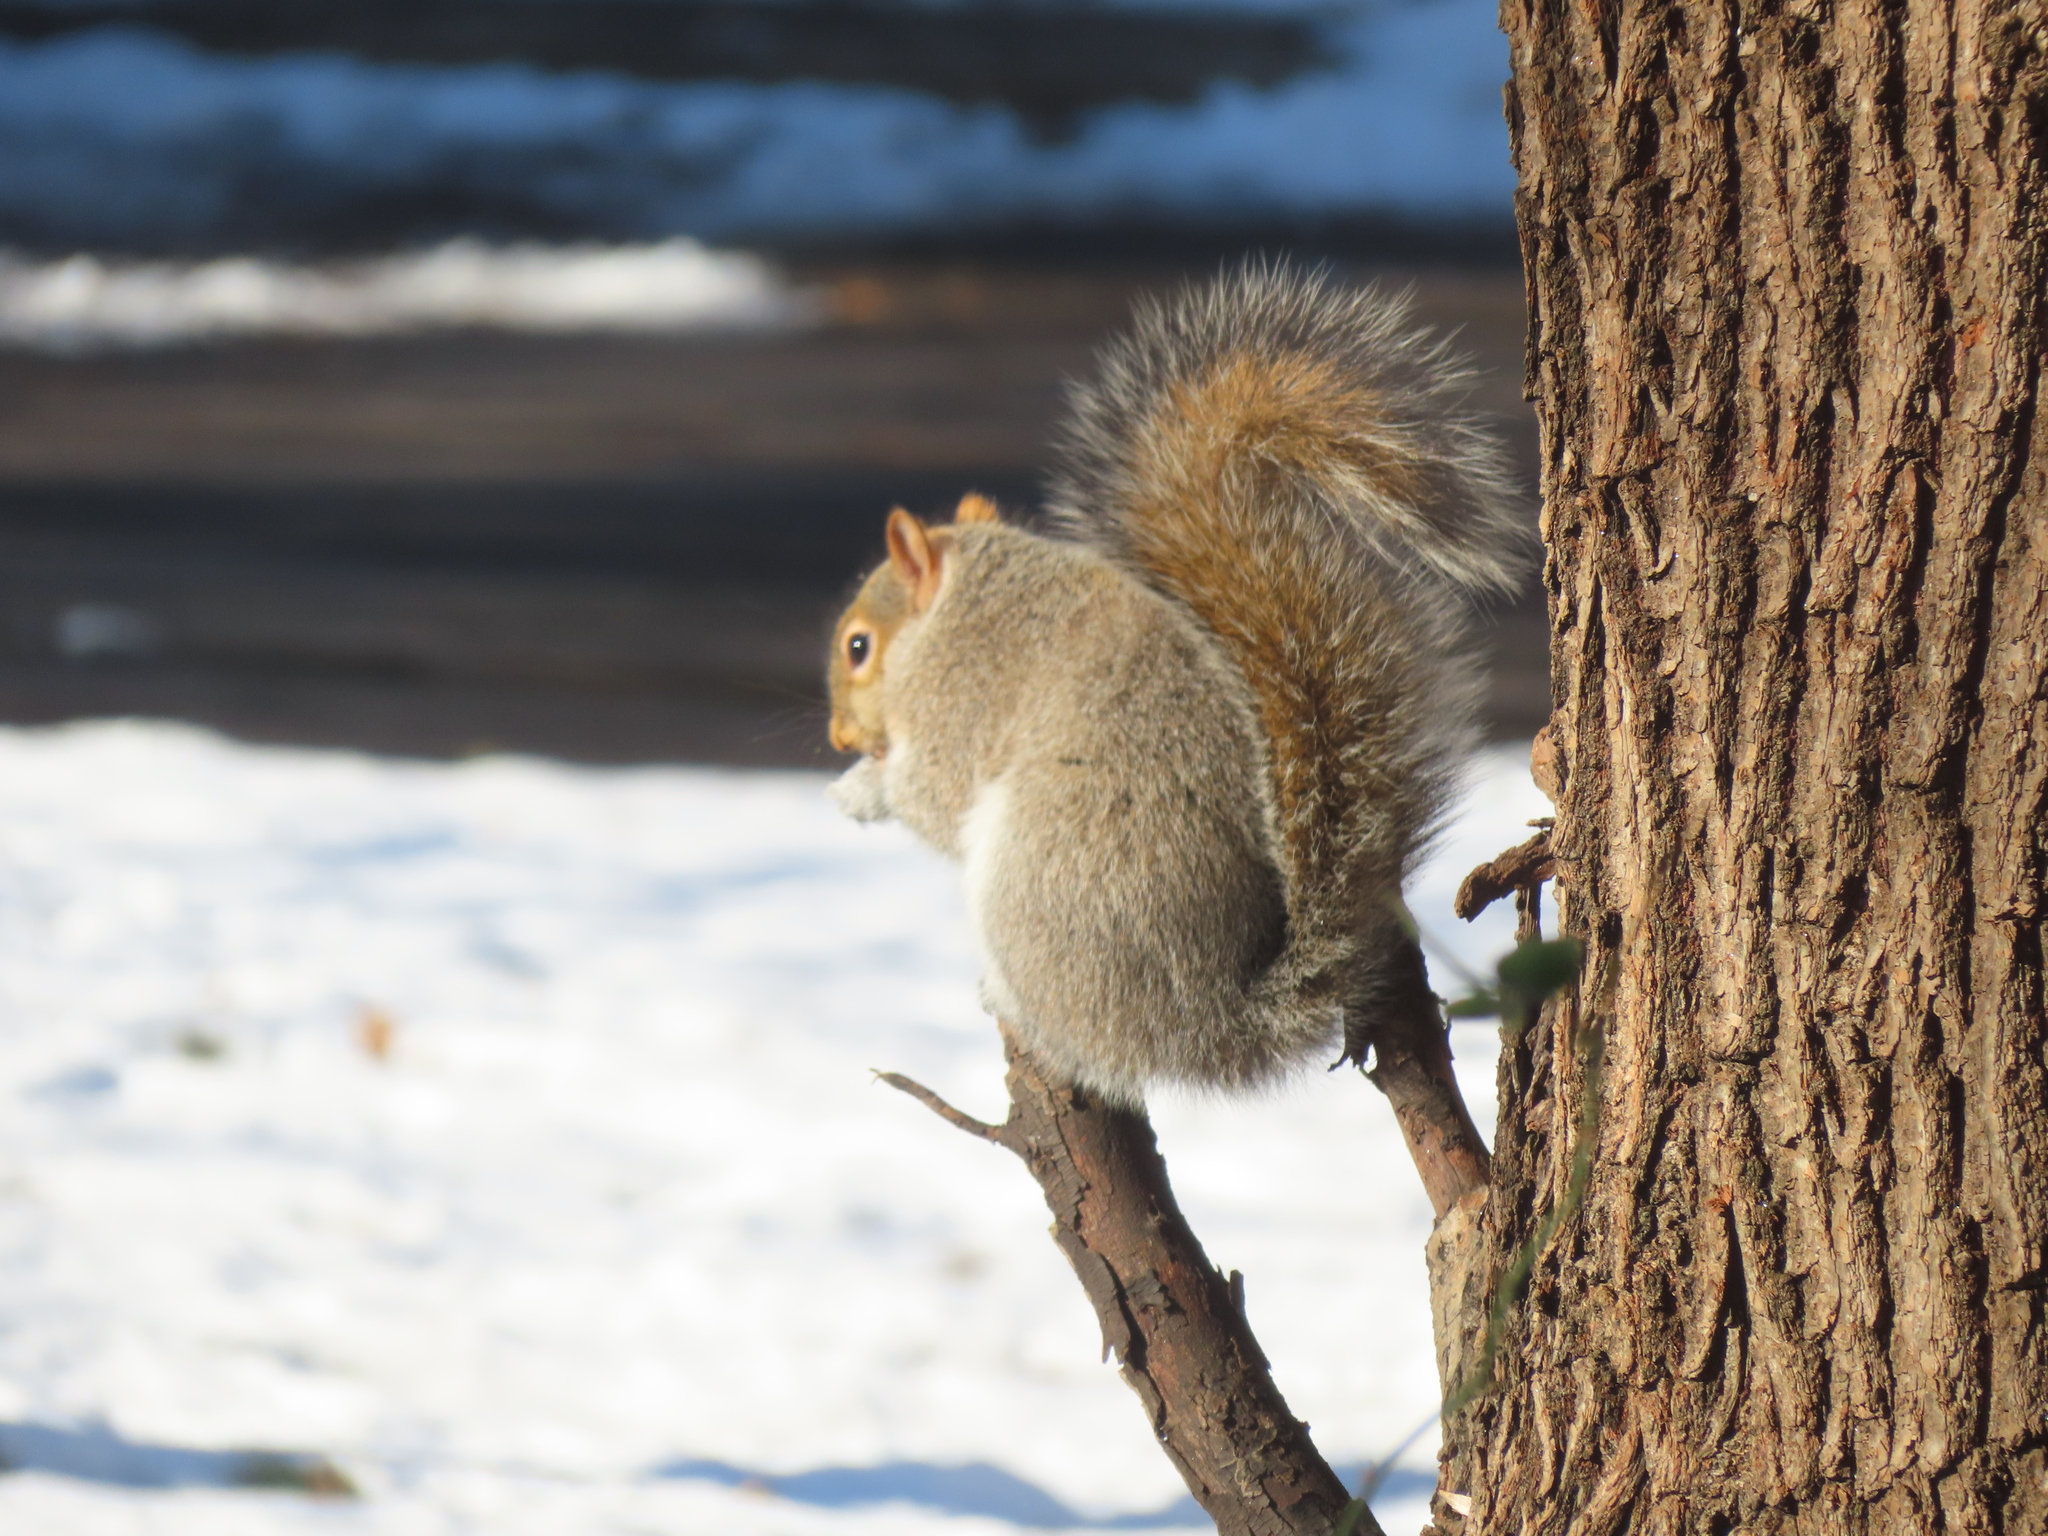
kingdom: Animalia
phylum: Chordata
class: Mammalia
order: Rodentia
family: Sciuridae
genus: Sciurus
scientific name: Sciurus carolinensis
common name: Eastern gray squirrel
